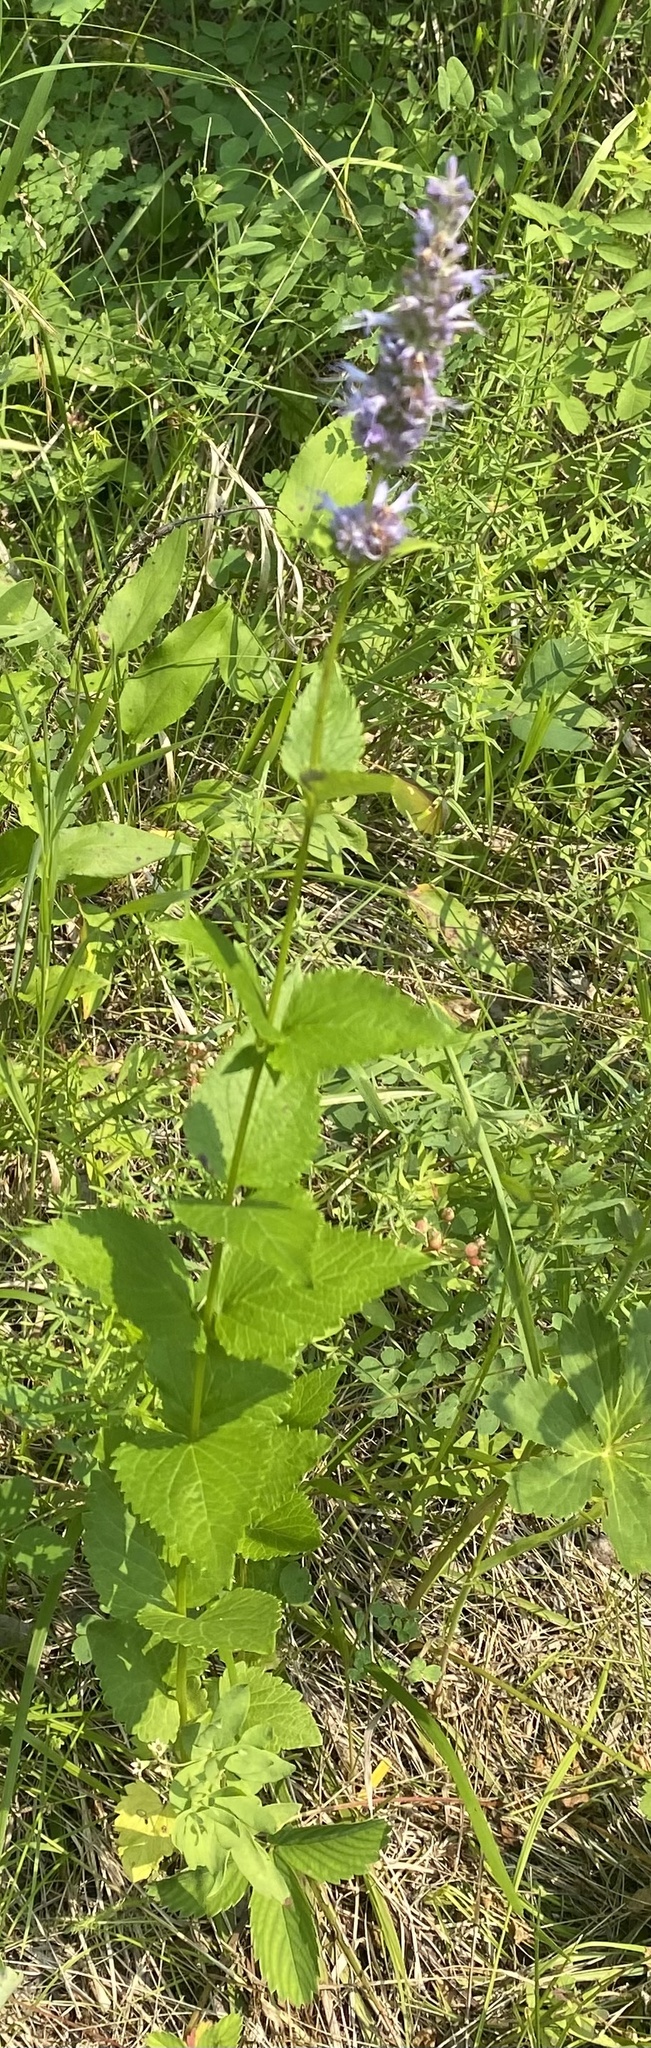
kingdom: Plantae
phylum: Tracheophyta
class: Magnoliopsida
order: Lamiales
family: Lamiaceae
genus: Agastache
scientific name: Agastache foeniculum
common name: Anise hyssop
